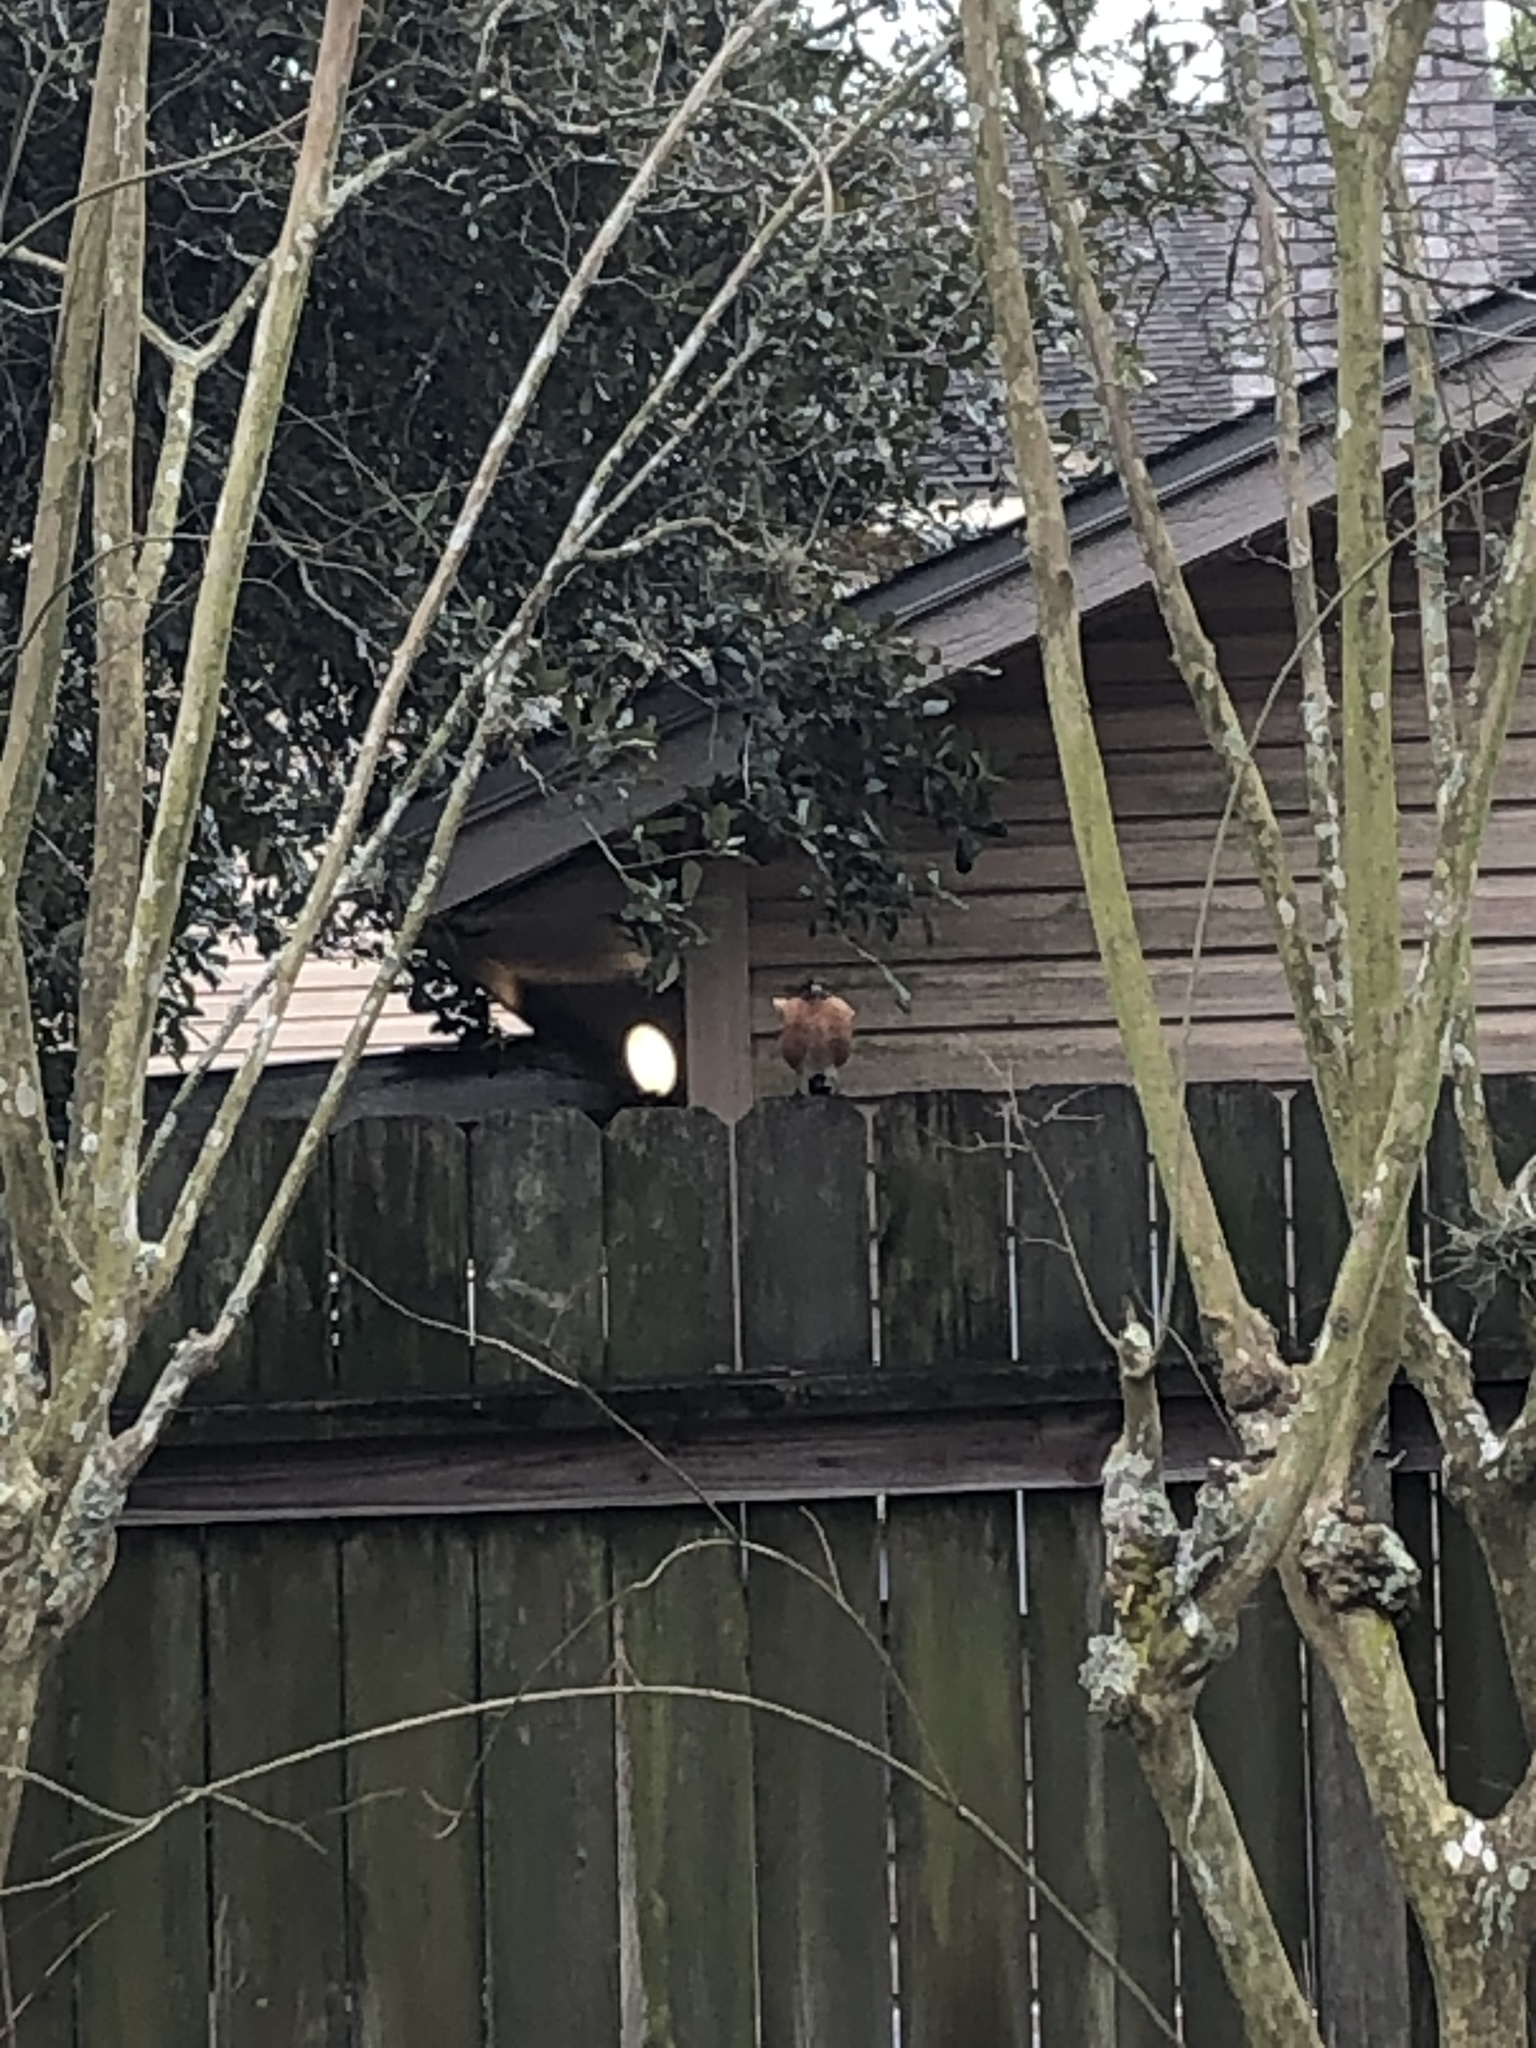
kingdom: Animalia
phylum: Chordata
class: Aves
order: Passeriformes
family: Turdidae
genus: Turdus
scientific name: Turdus migratorius
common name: American robin
